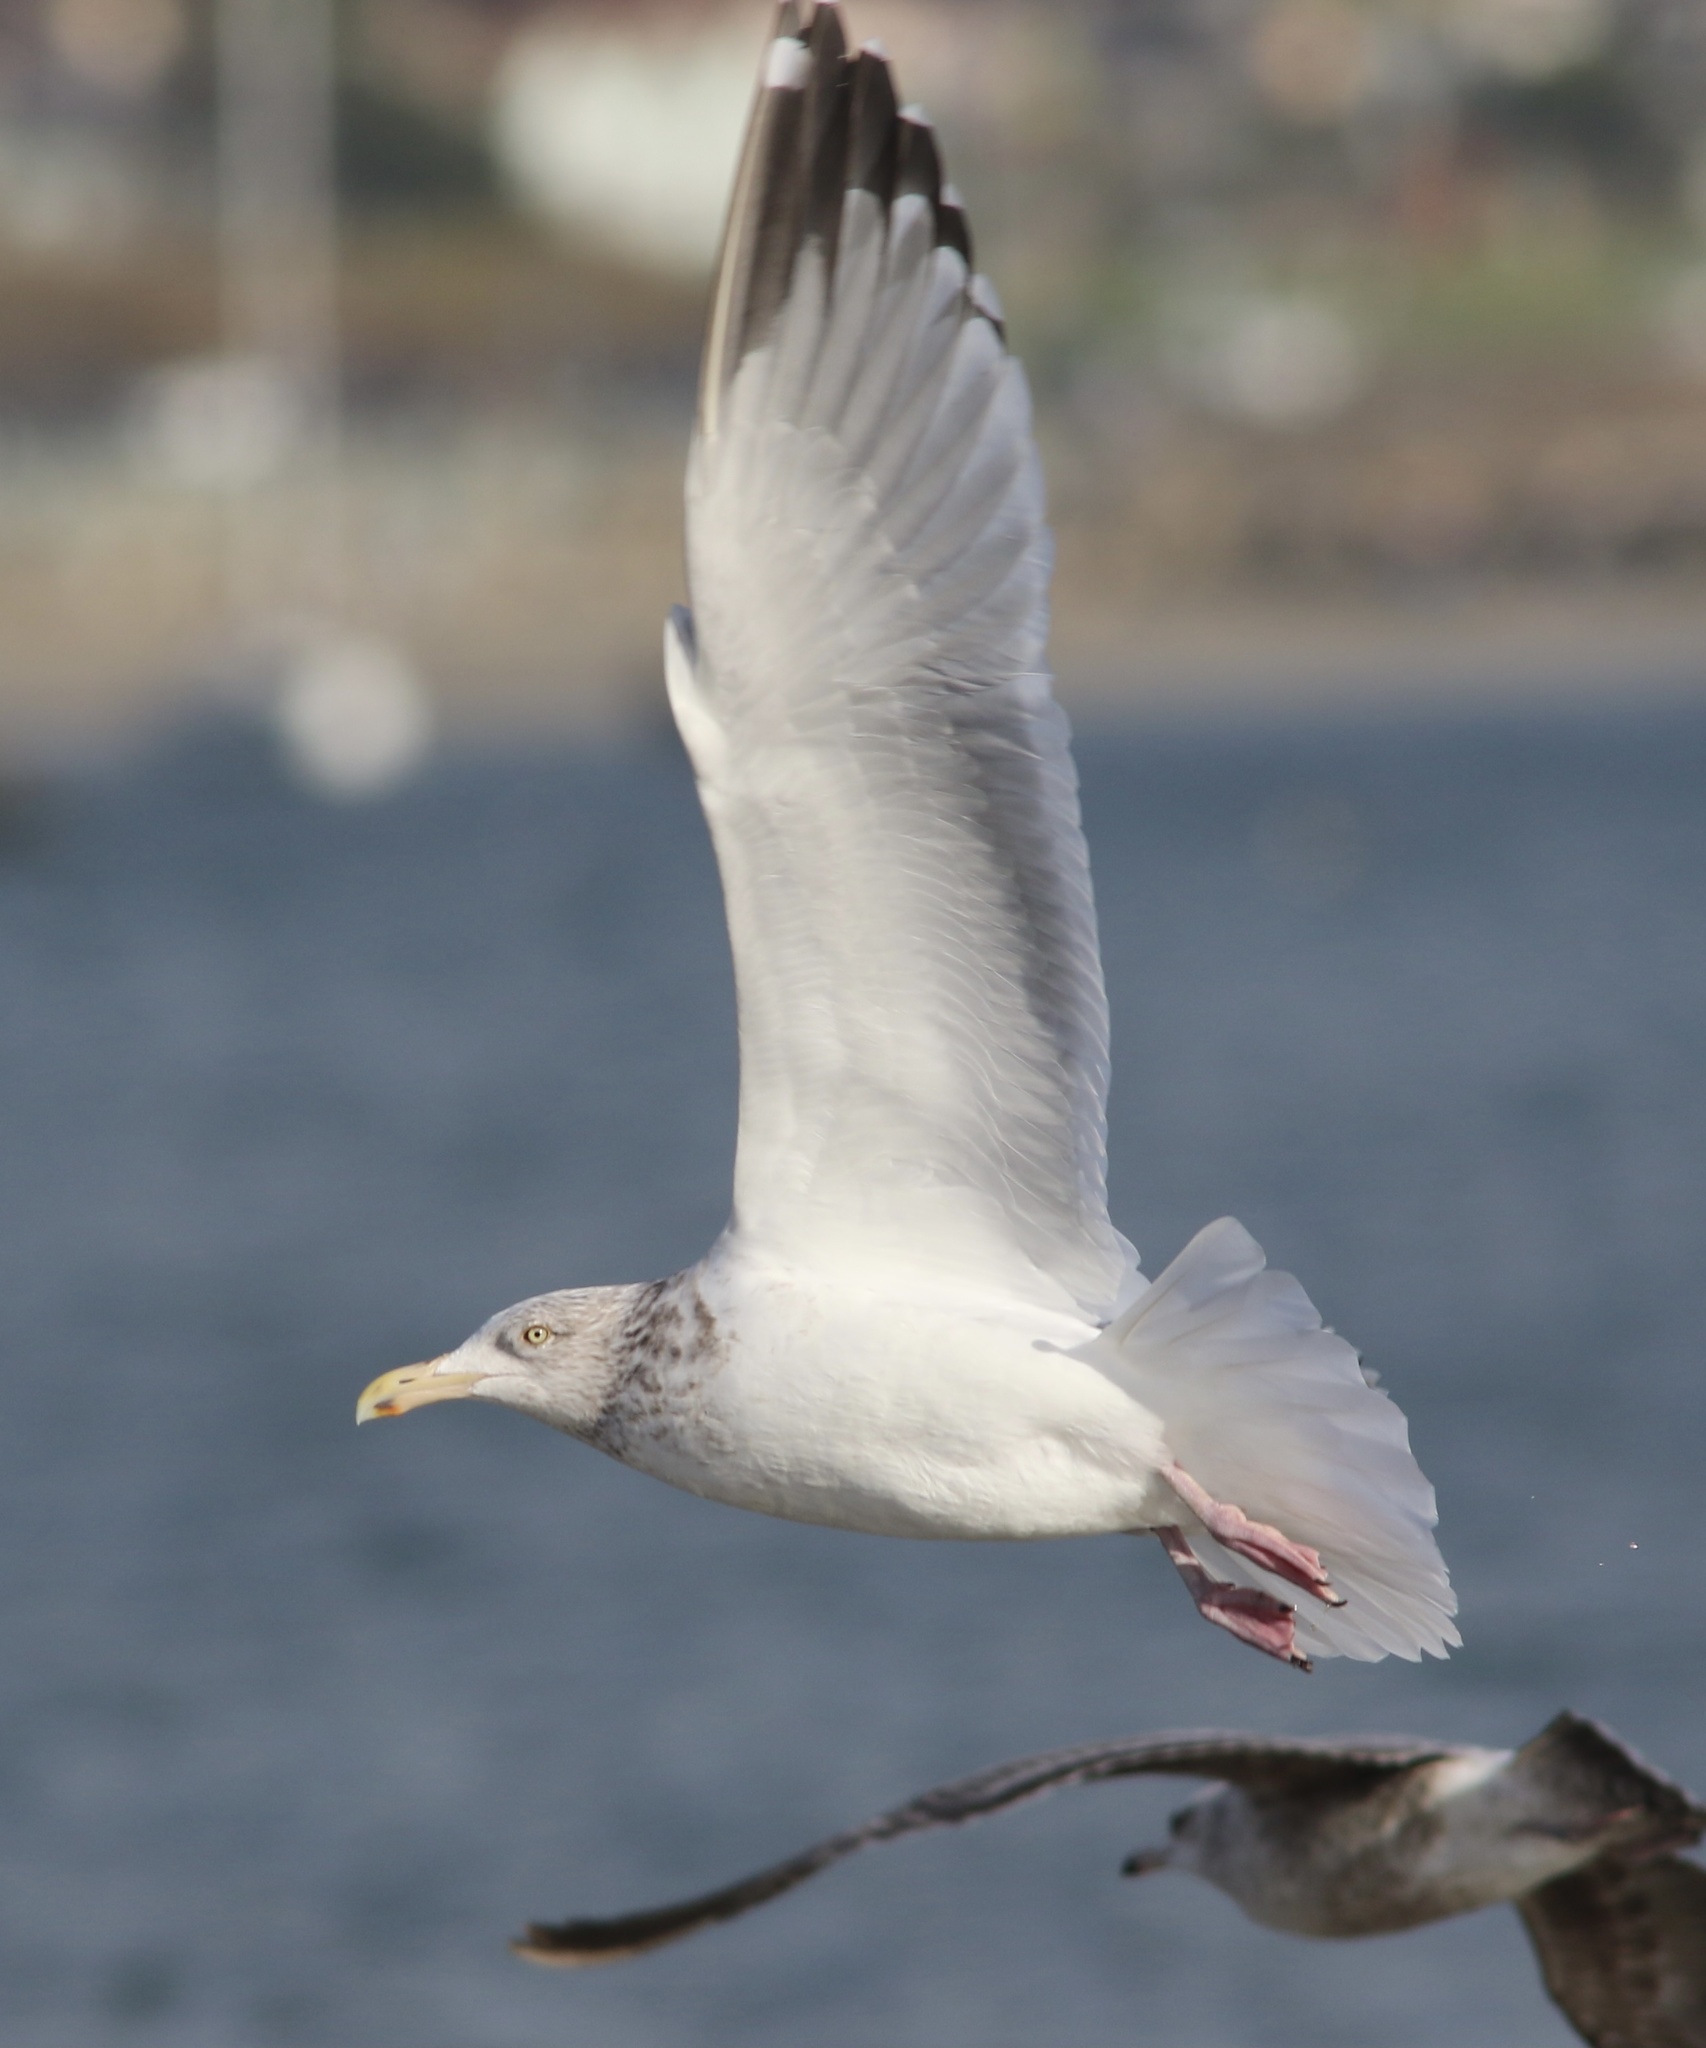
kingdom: Animalia
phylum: Chordata
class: Aves
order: Charadriiformes
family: Laridae
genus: Larus
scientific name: Larus argentatus
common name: Herring gull
